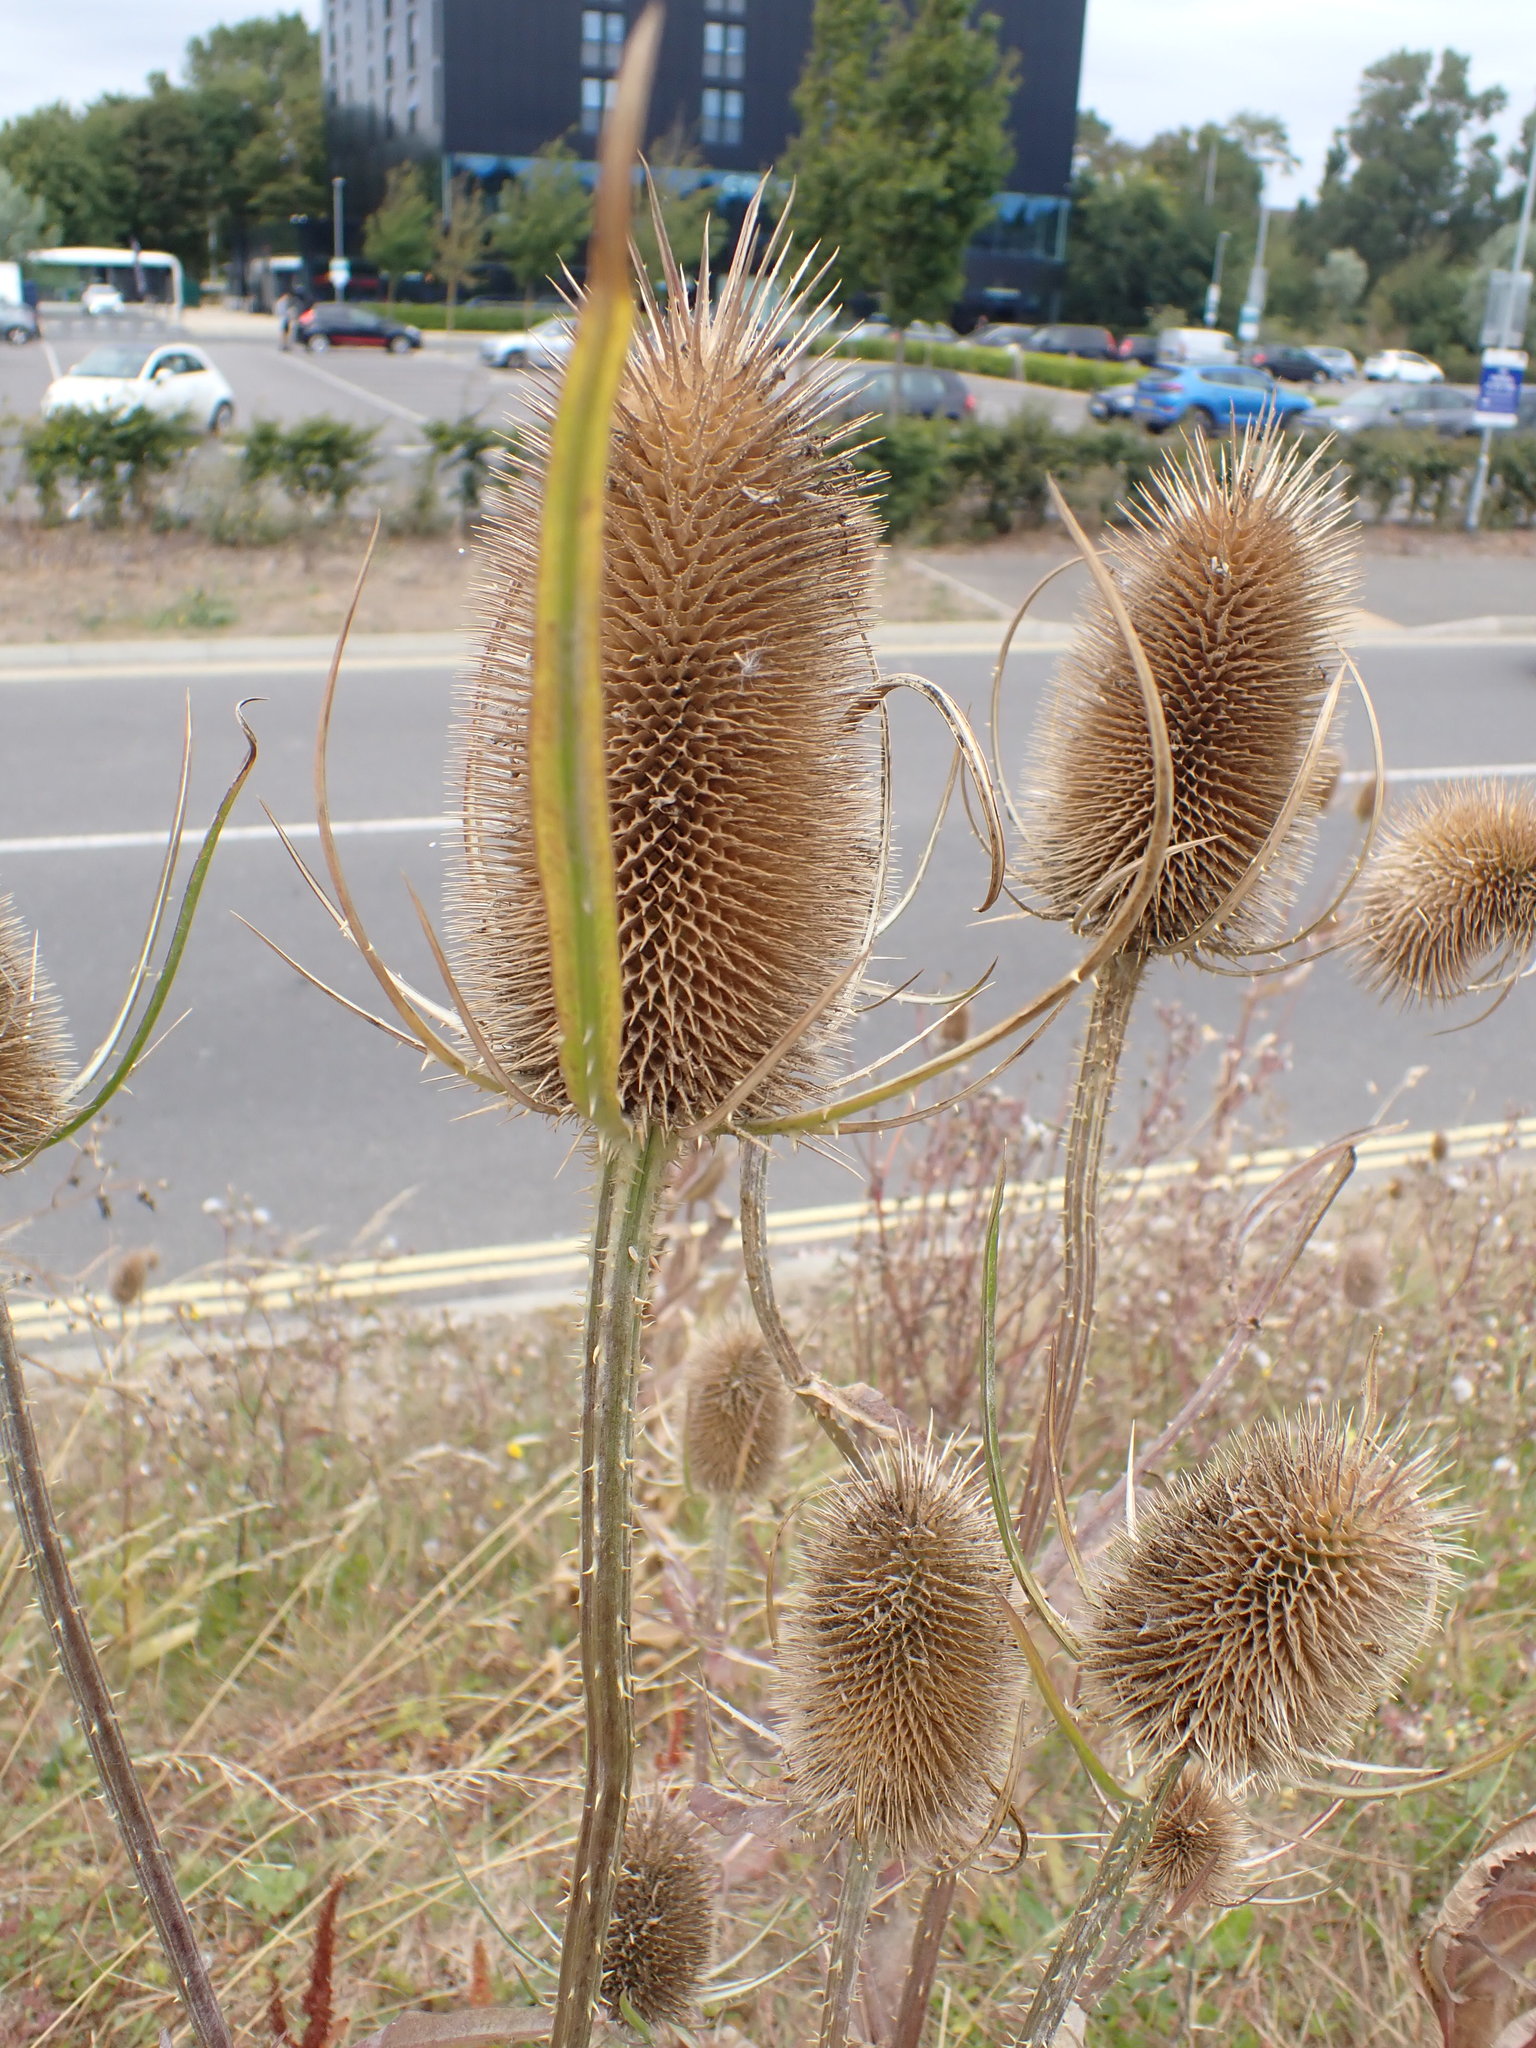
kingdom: Plantae
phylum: Tracheophyta
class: Magnoliopsida
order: Dipsacales
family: Caprifoliaceae
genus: Dipsacus
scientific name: Dipsacus fullonum
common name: Teasel
